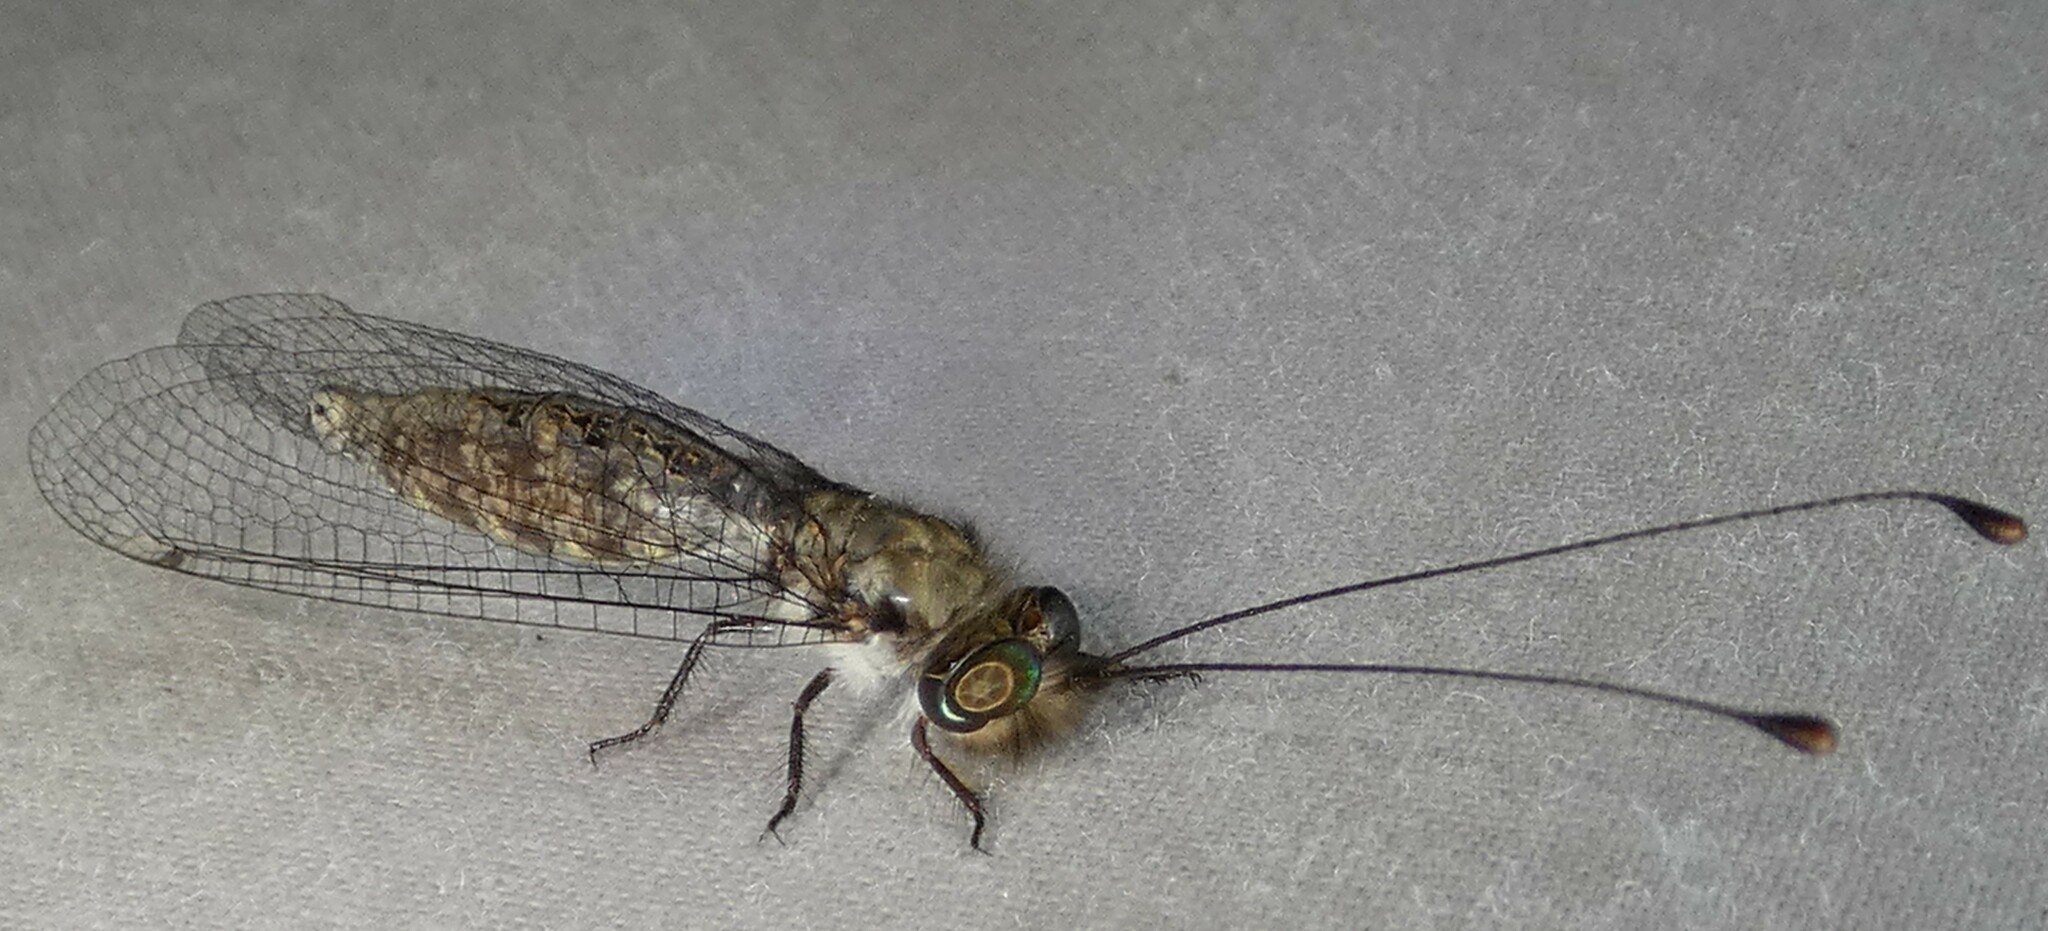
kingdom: Animalia
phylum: Arthropoda
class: Insecta
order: Neuroptera
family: Ascalaphidae
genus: Ululodes
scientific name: Ululodes floridanus
